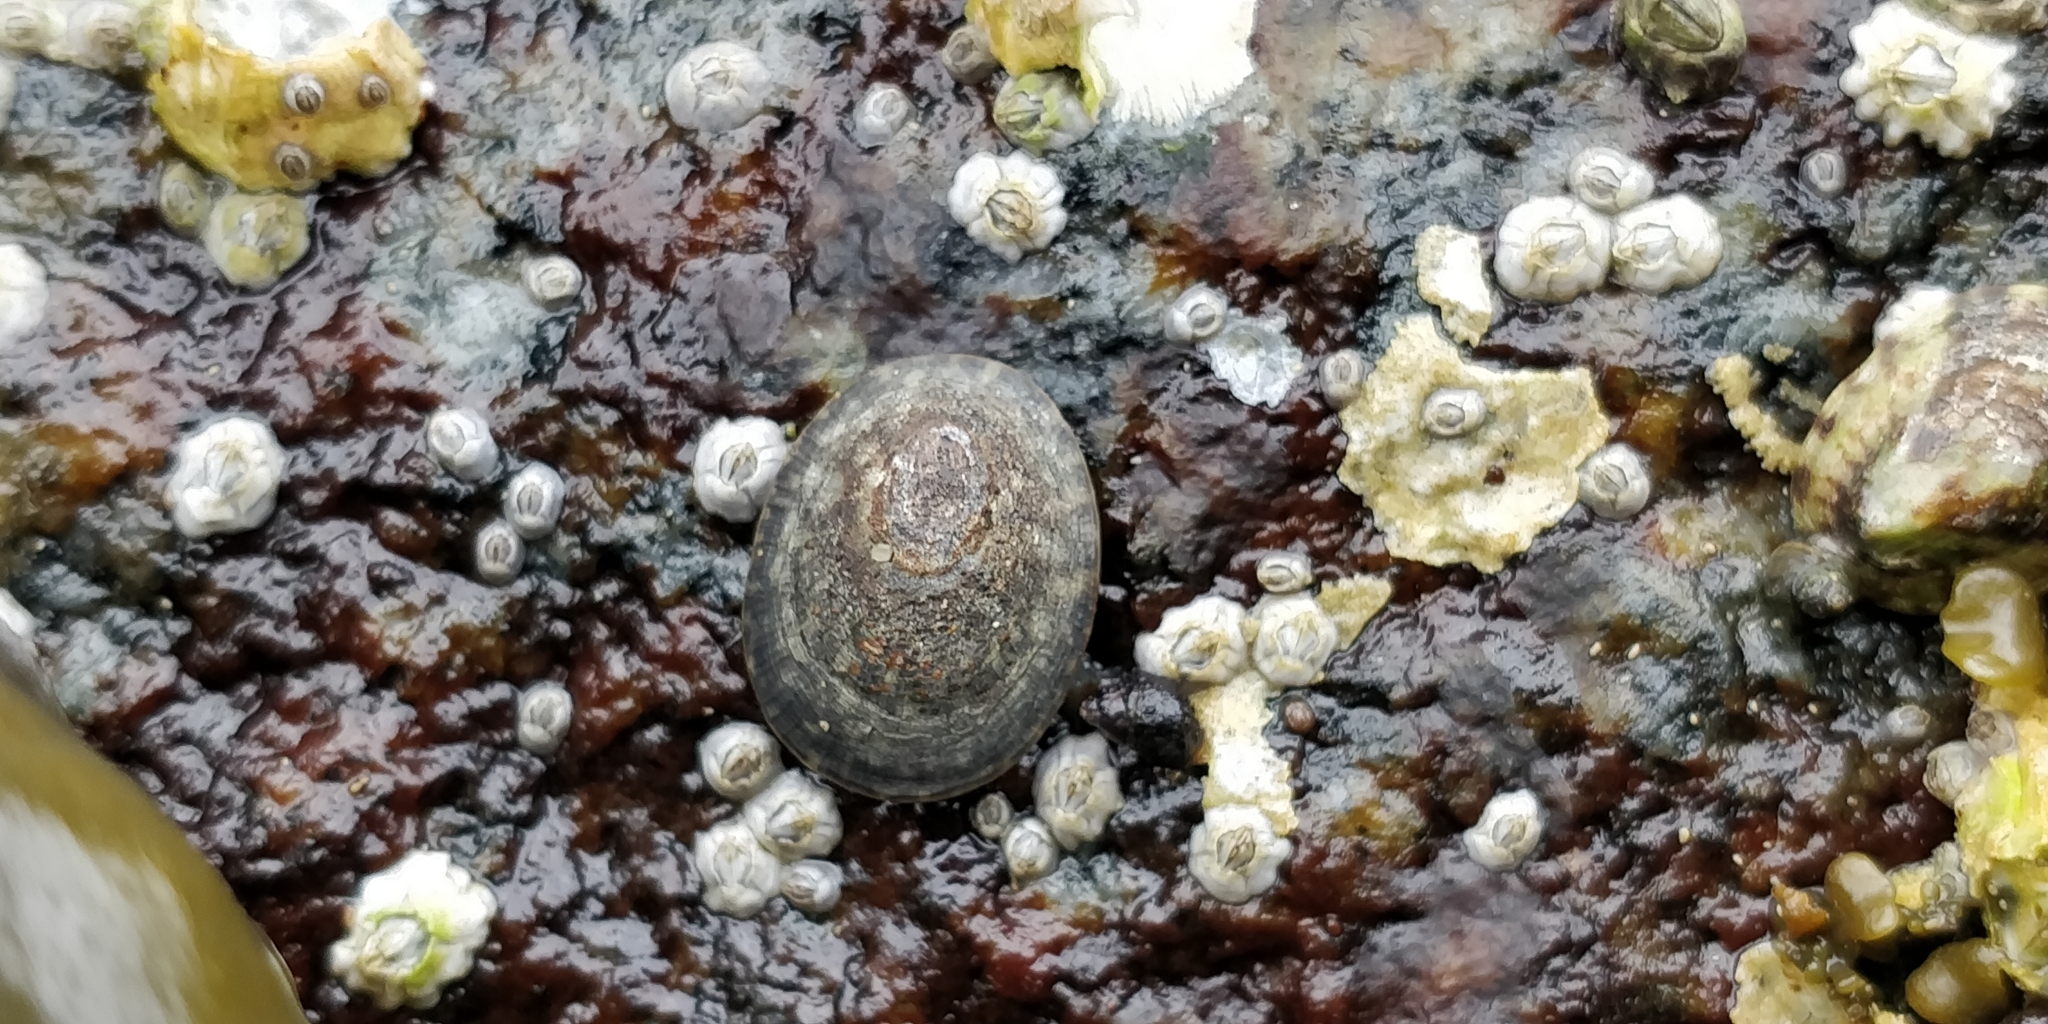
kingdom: Animalia
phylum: Mollusca
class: Gastropoda
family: Lottiidae
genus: Lottia
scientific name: Lottia persona
